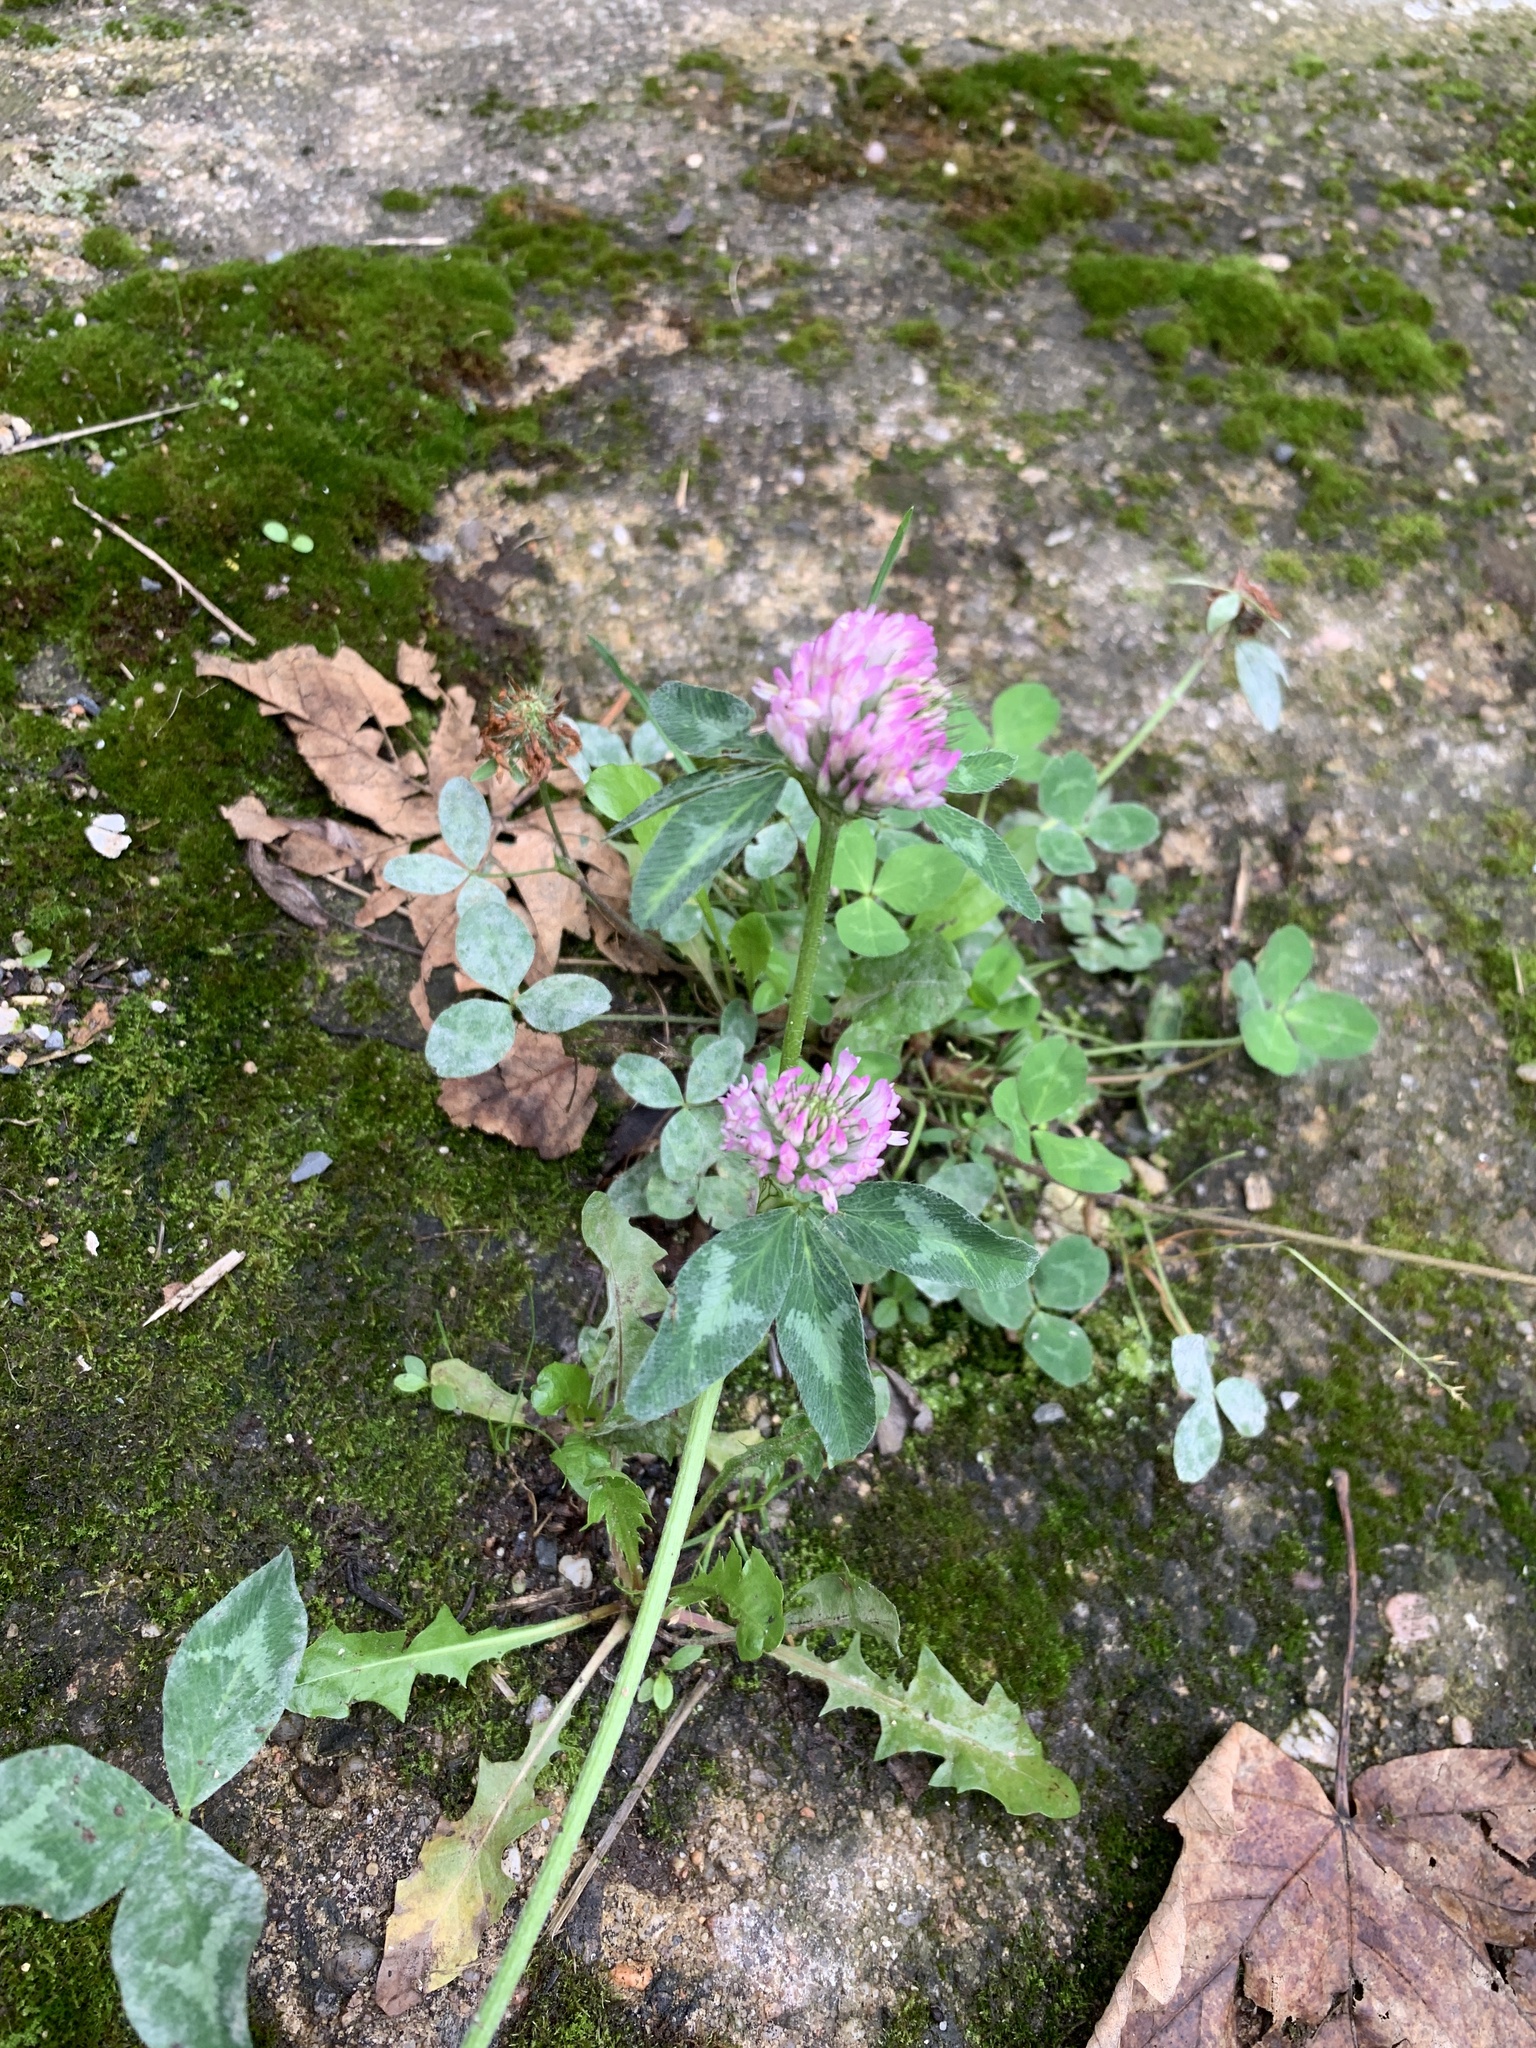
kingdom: Plantae
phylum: Tracheophyta
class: Magnoliopsida
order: Fabales
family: Fabaceae
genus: Trifolium
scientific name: Trifolium pratense
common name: Red clover
